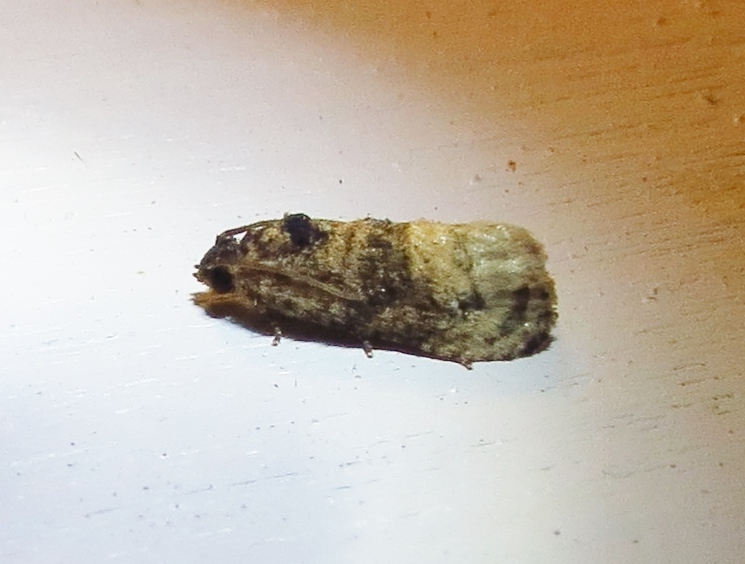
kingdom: Animalia
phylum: Arthropoda
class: Insecta
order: Lepidoptera
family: Tortricidae
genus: Ecdytolopha
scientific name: Ecdytolopha mana
